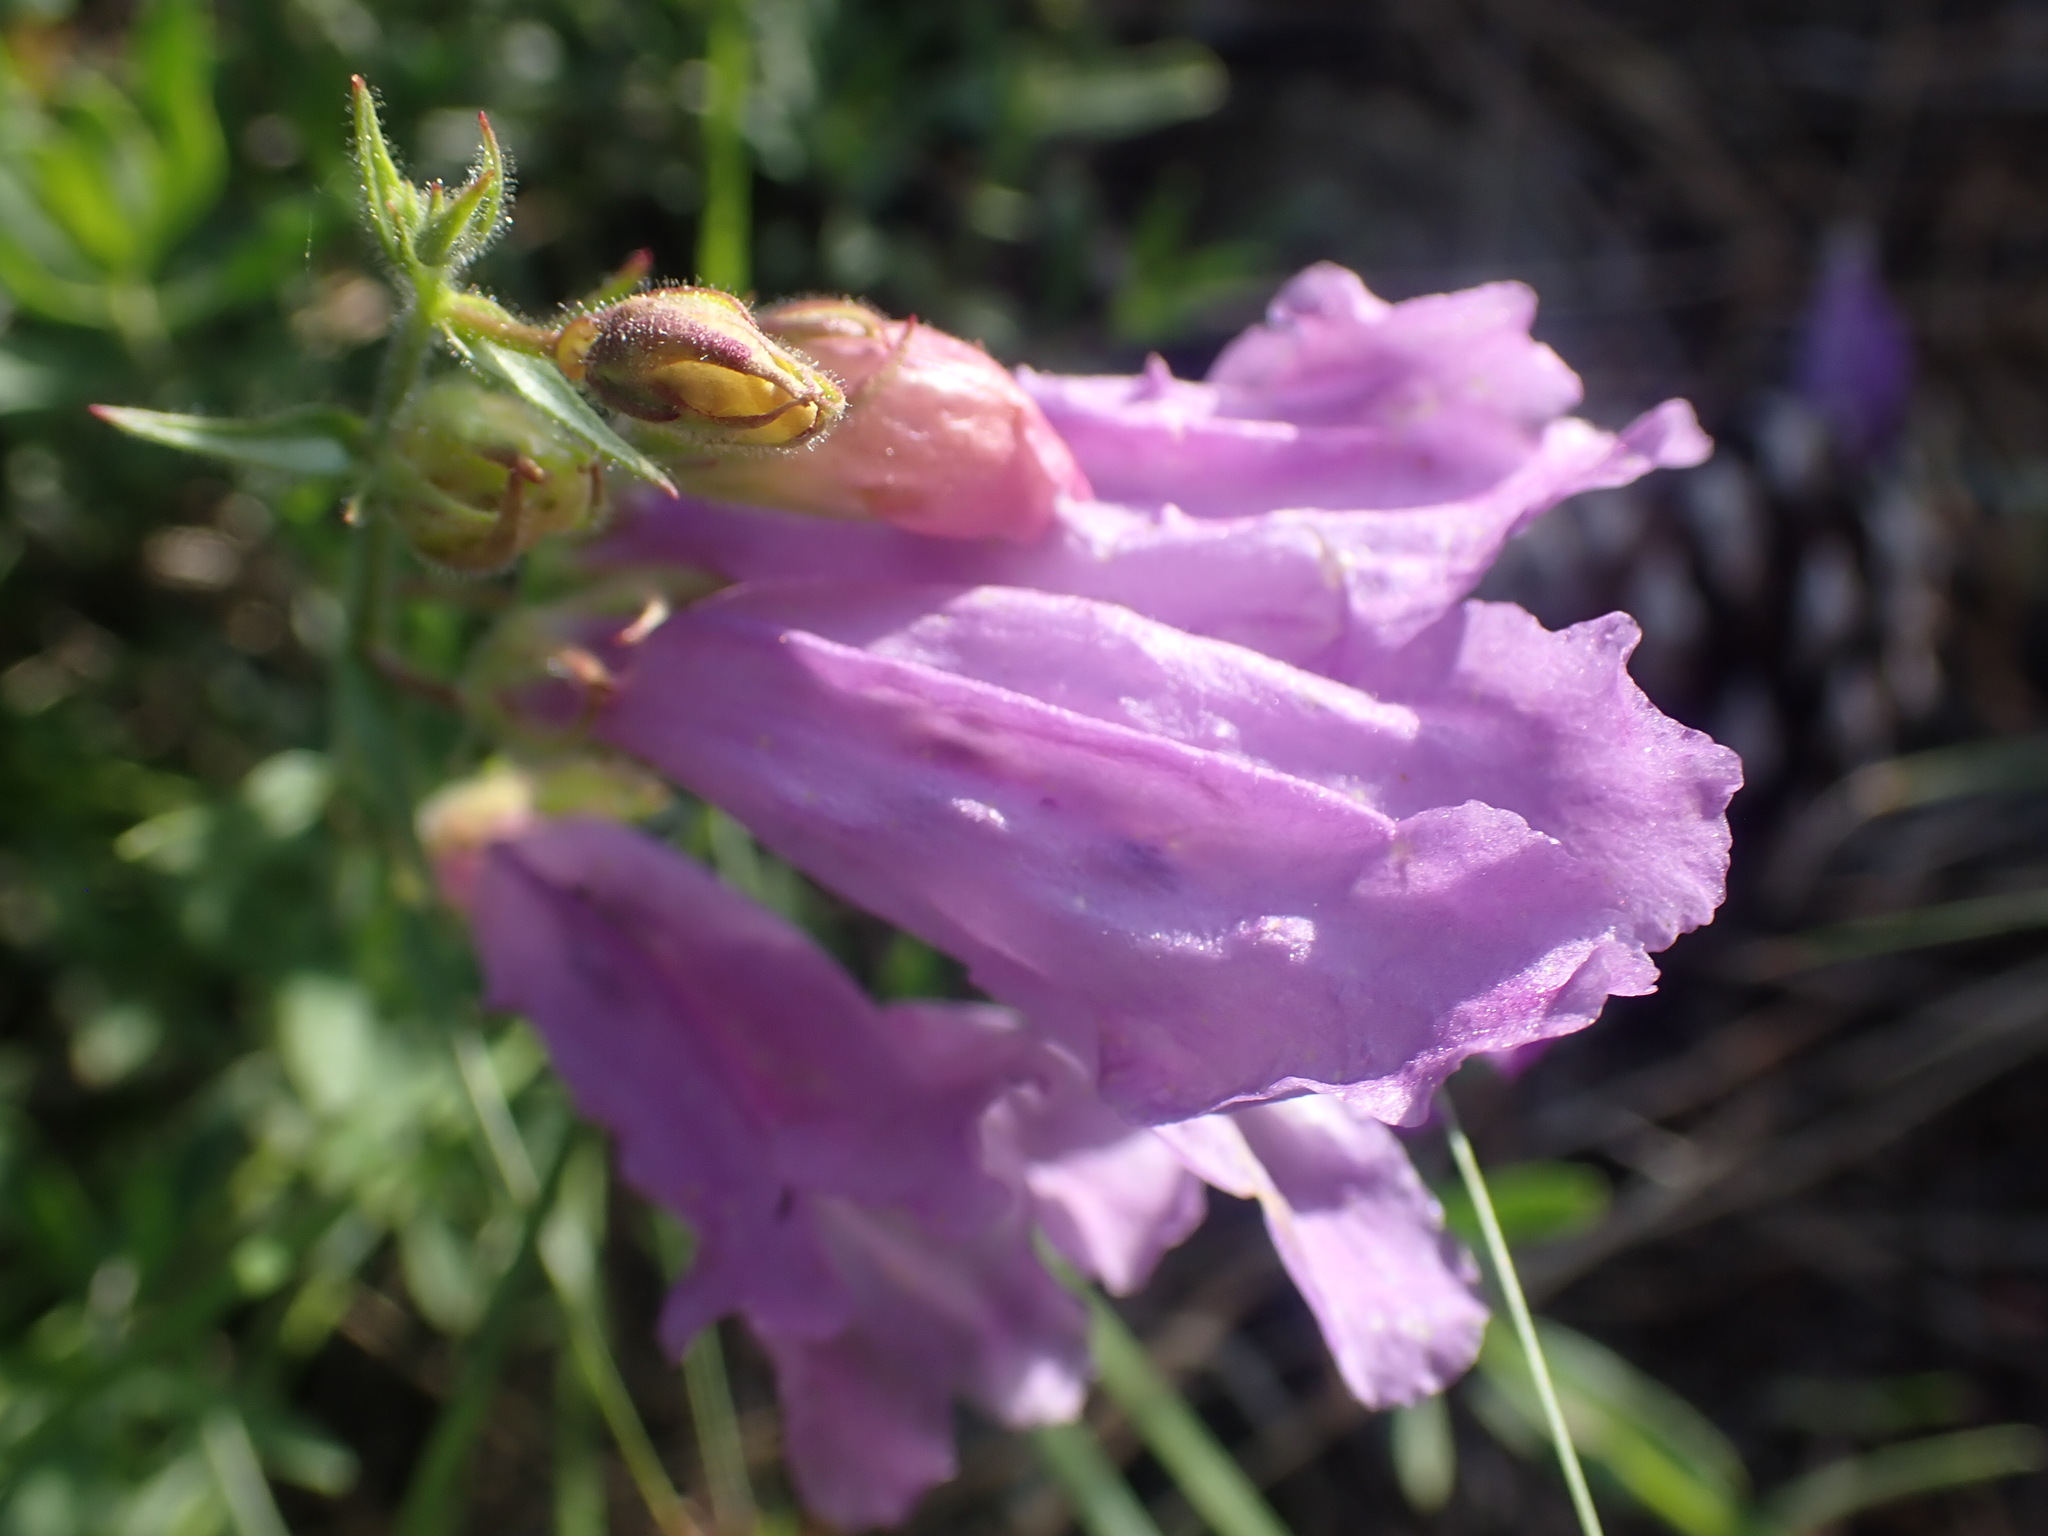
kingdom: Plantae
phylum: Tracheophyta
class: Magnoliopsida
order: Lamiales
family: Plantaginaceae
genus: Penstemon
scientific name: Penstemon fruticosus
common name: Bush penstemon
